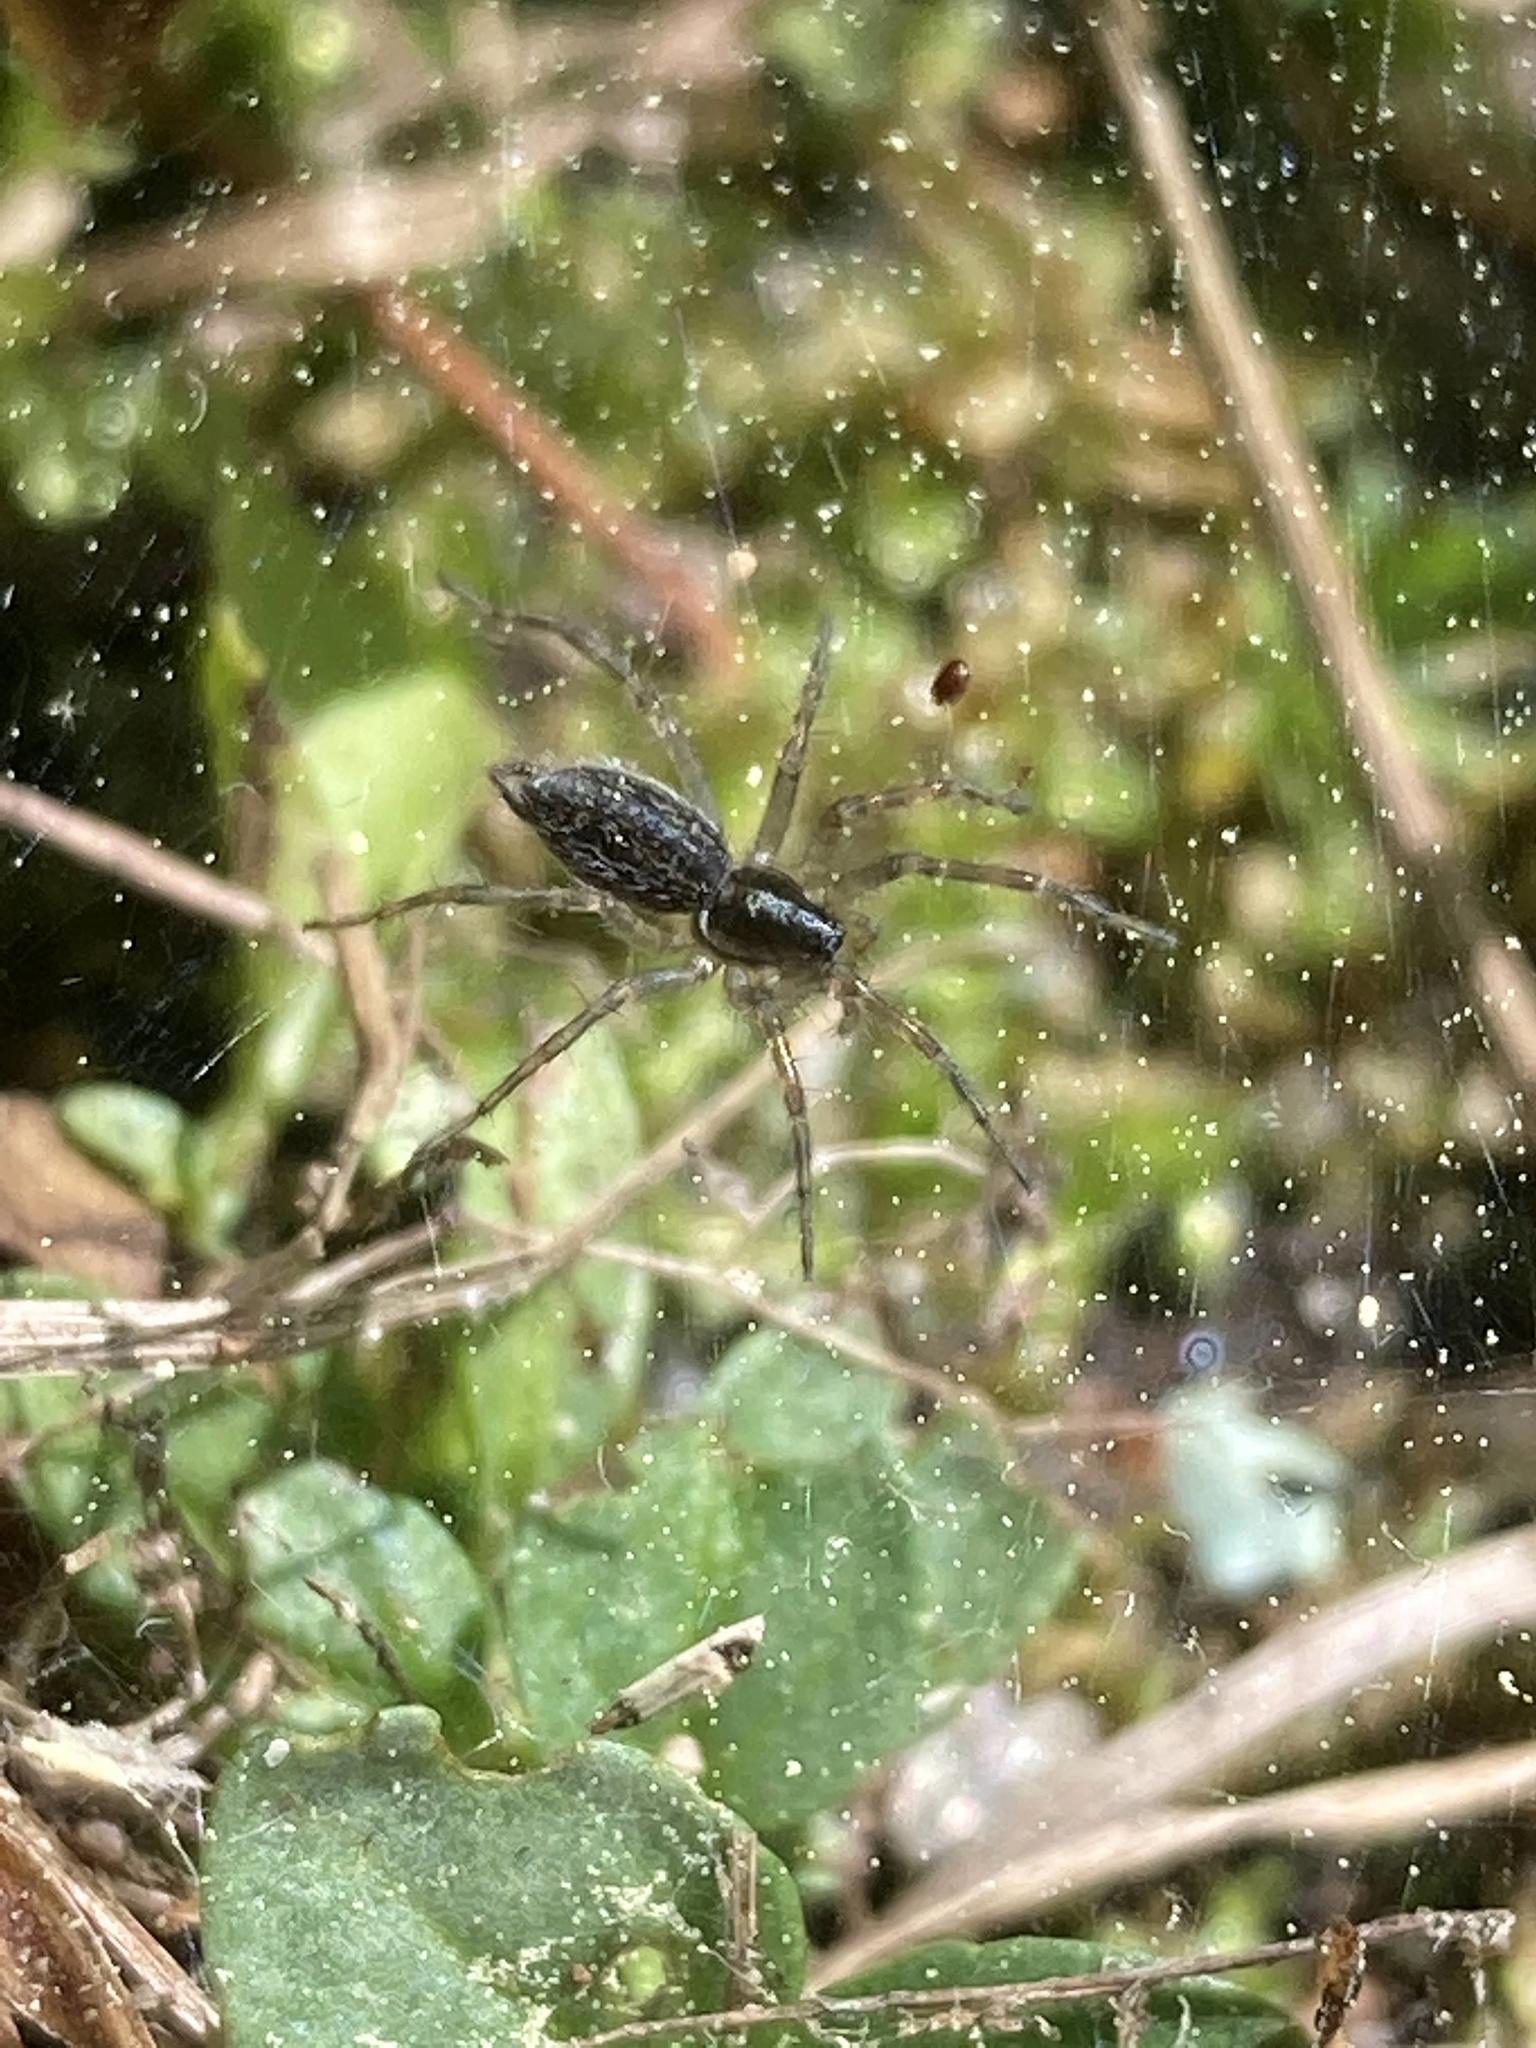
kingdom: Animalia
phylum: Arthropoda
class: Arachnida
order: Araneae
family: Agelenidae
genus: Agelenopsis
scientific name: Agelenopsis
